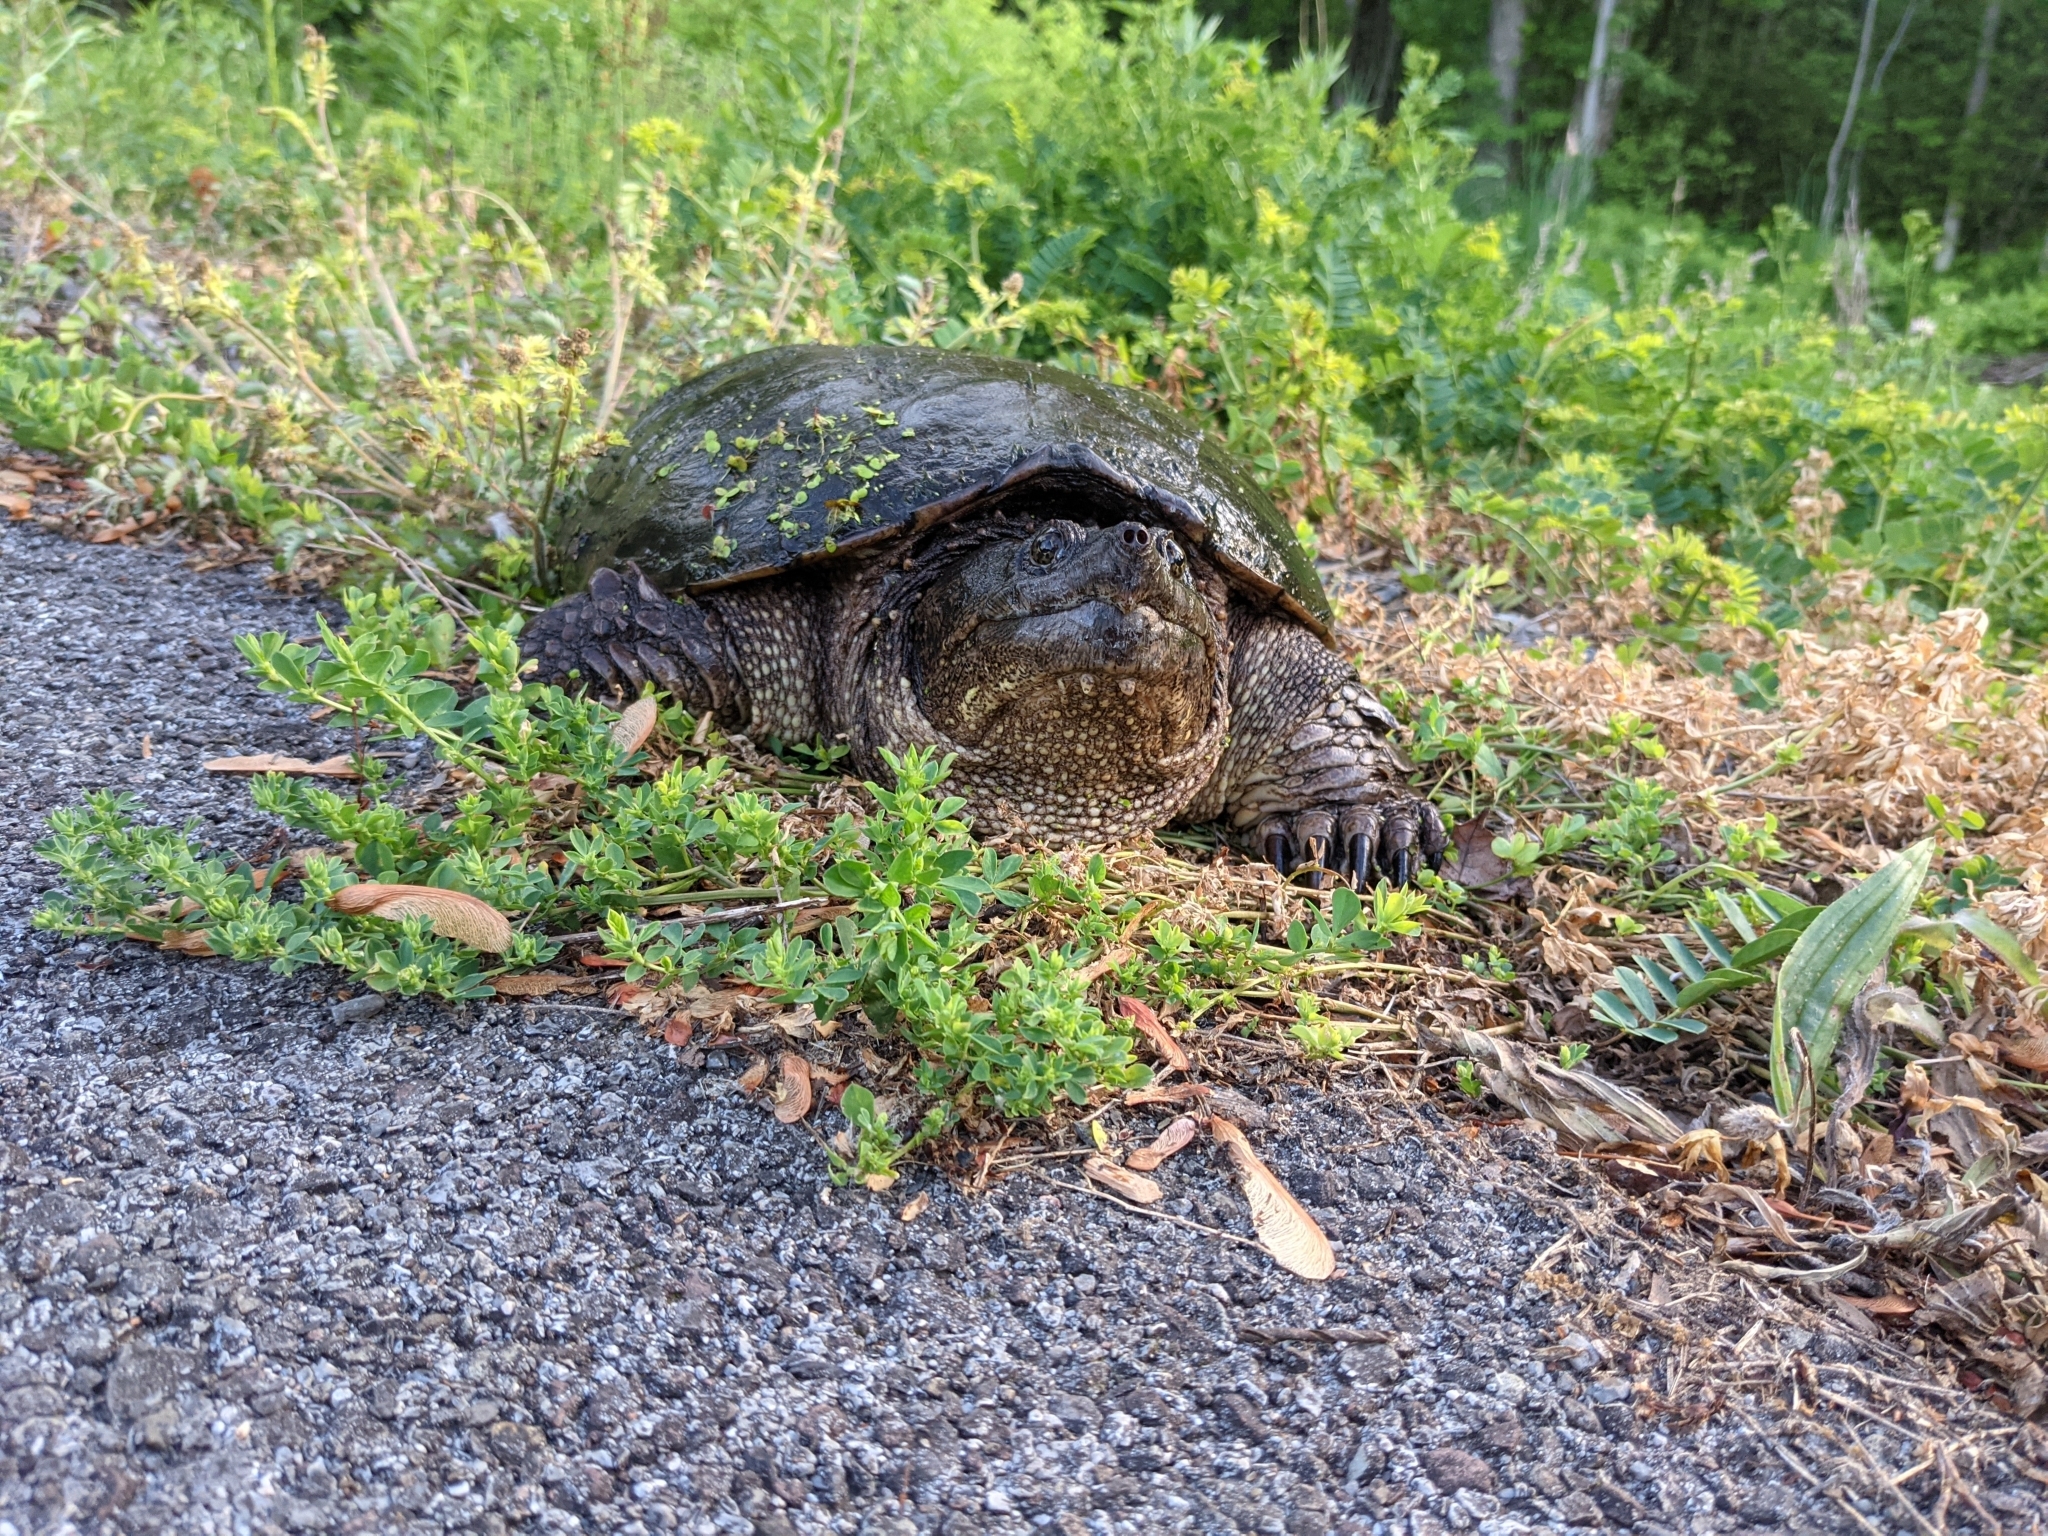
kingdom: Animalia
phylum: Chordata
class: Testudines
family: Chelydridae
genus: Chelydra
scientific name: Chelydra serpentina
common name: Common snapping turtle
